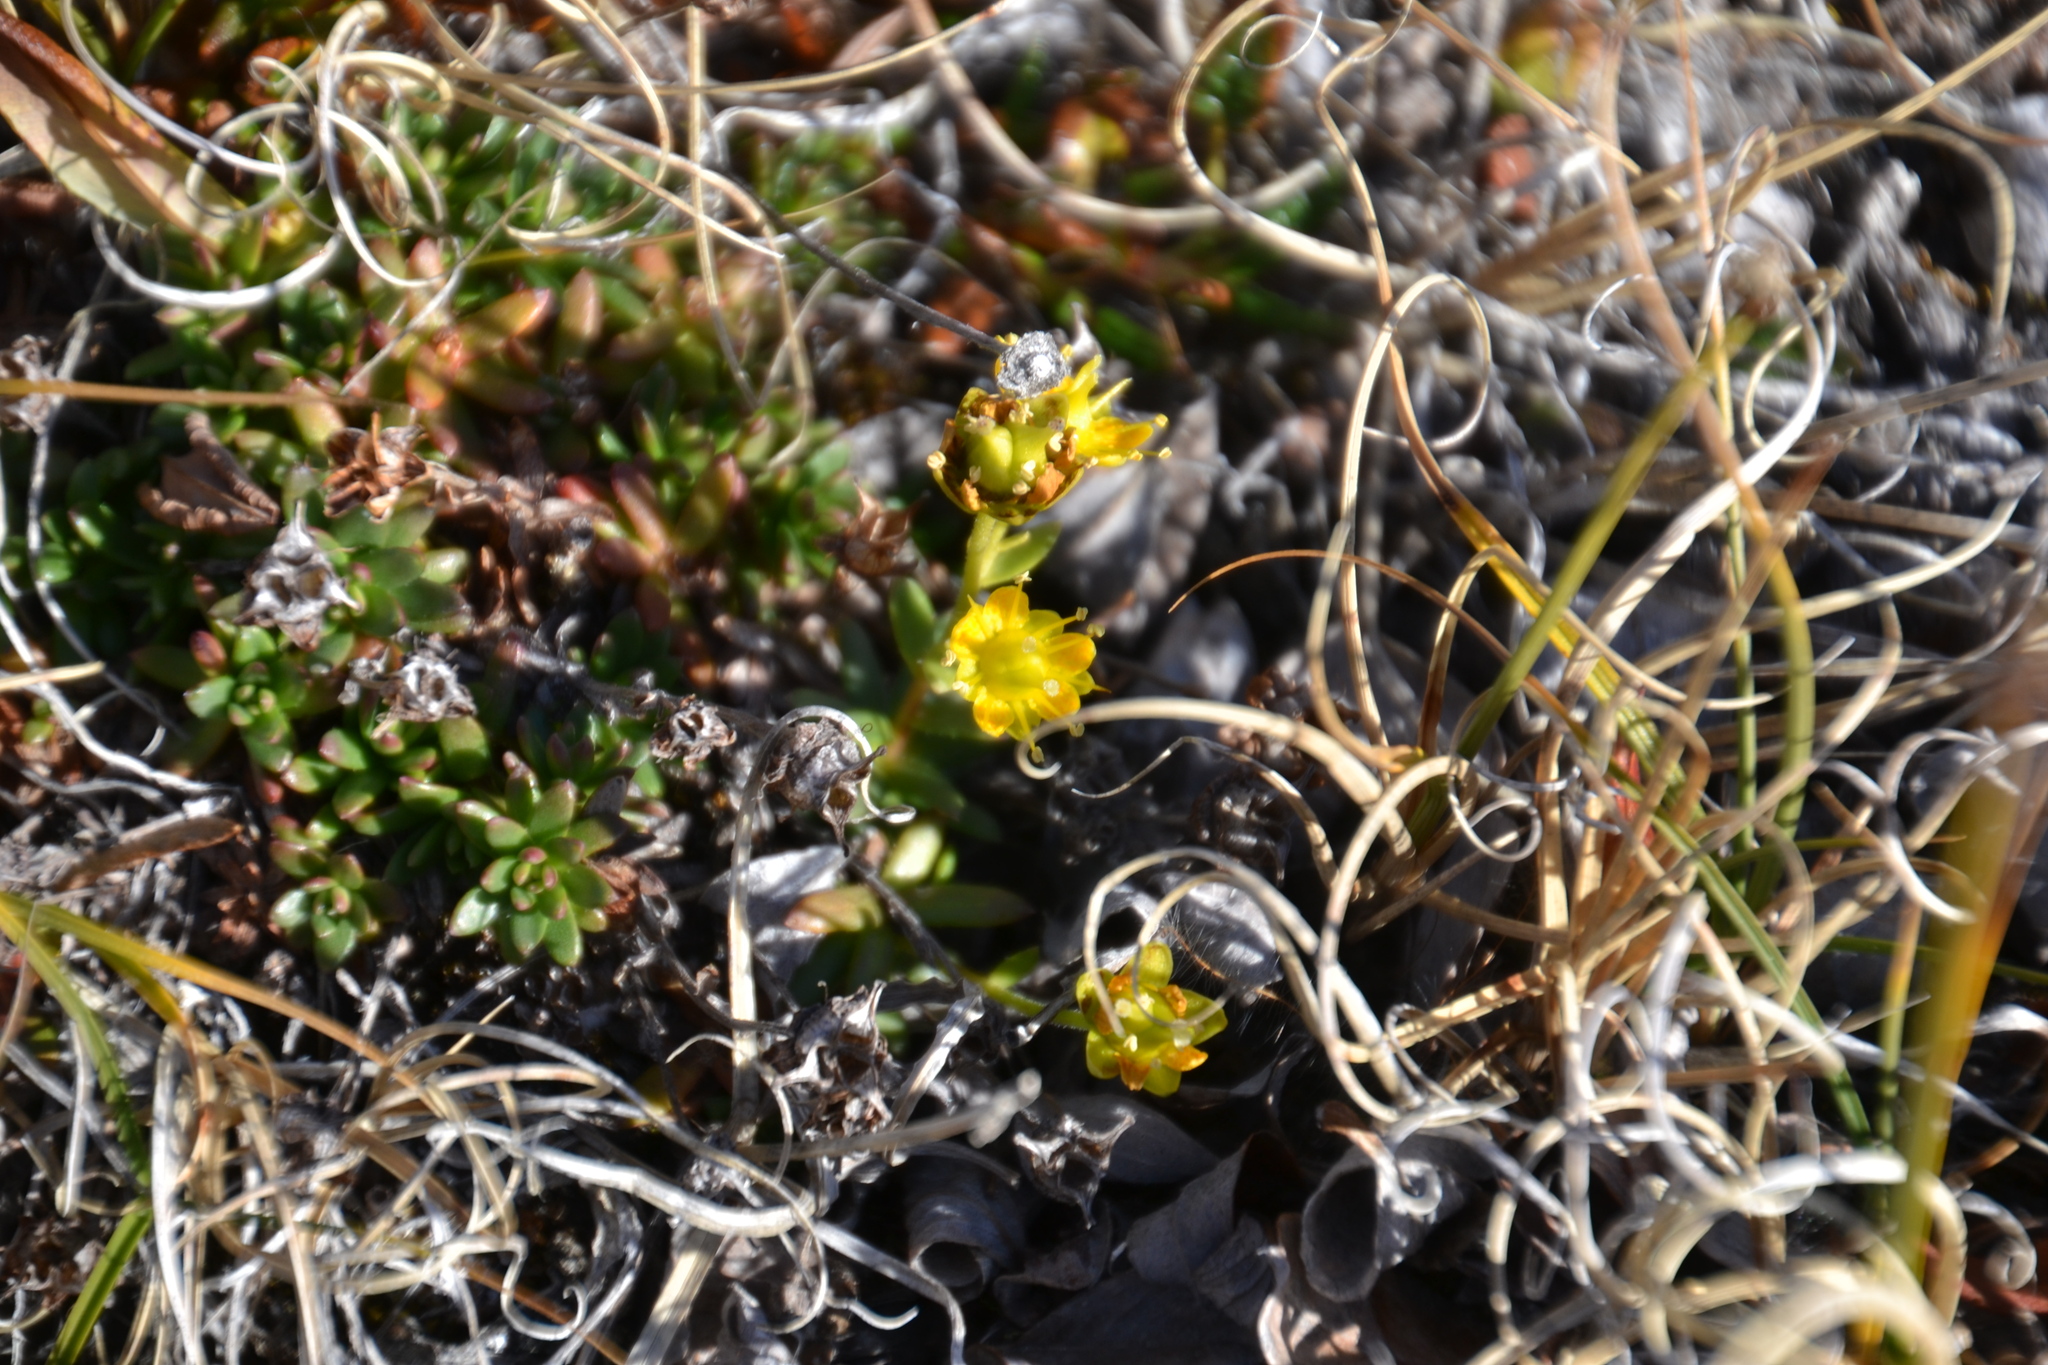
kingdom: Plantae
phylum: Tracheophyta
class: Magnoliopsida
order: Saxifragales
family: Saxifragaceae
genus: Saxifraga
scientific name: Saxifraga aizoides
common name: Yellow mountain saxifrage
